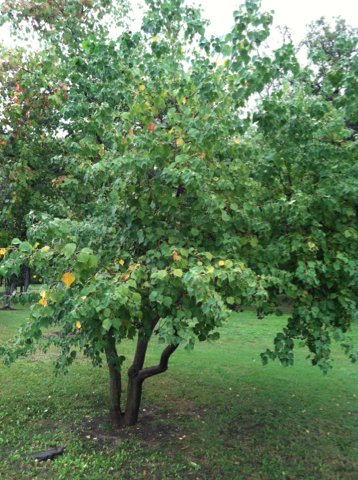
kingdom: Plantae
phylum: Tracheophyta
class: Magnoliopsida
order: Malpighiales
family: Euphorbiaceae
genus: Triadica
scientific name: Triadica sebifera
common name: Chinese tallow
